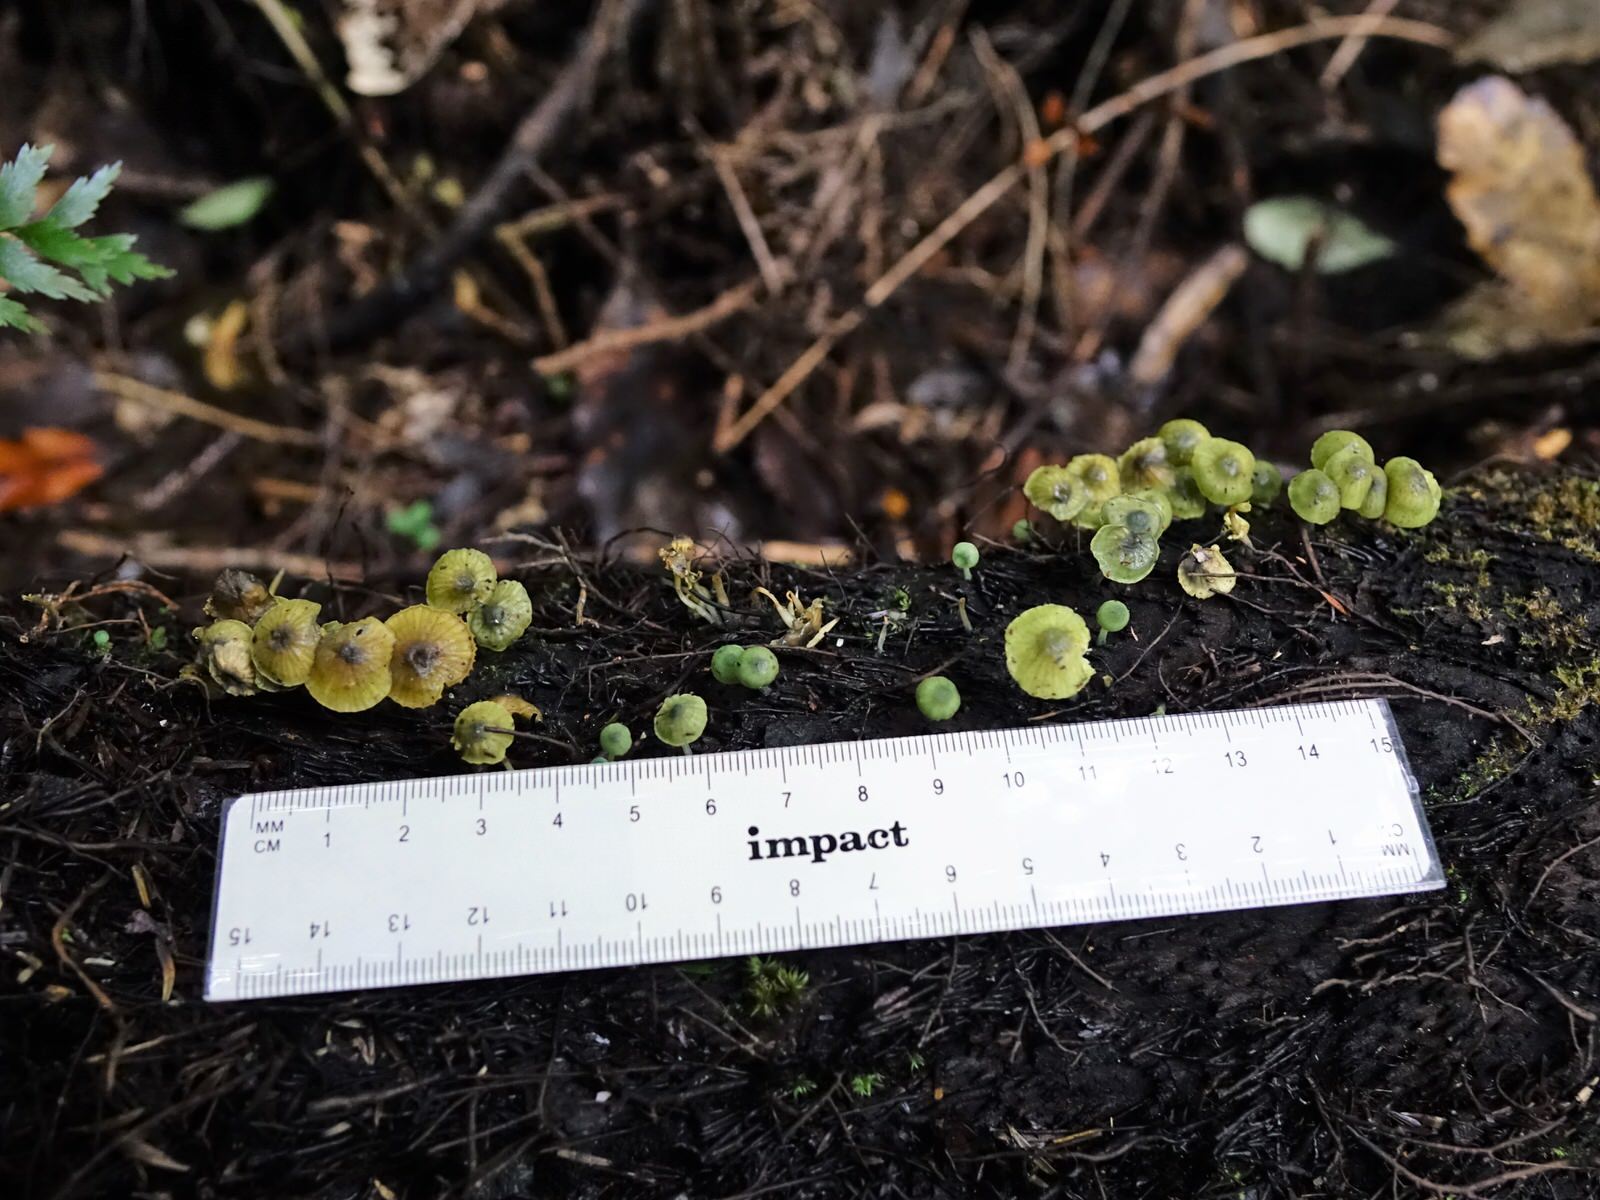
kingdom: Fungi
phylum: Basidiomycota
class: Agaricomycetes
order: Agaricales
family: Mycenaceae
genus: Insiticia
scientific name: Insiticia flavovirens
